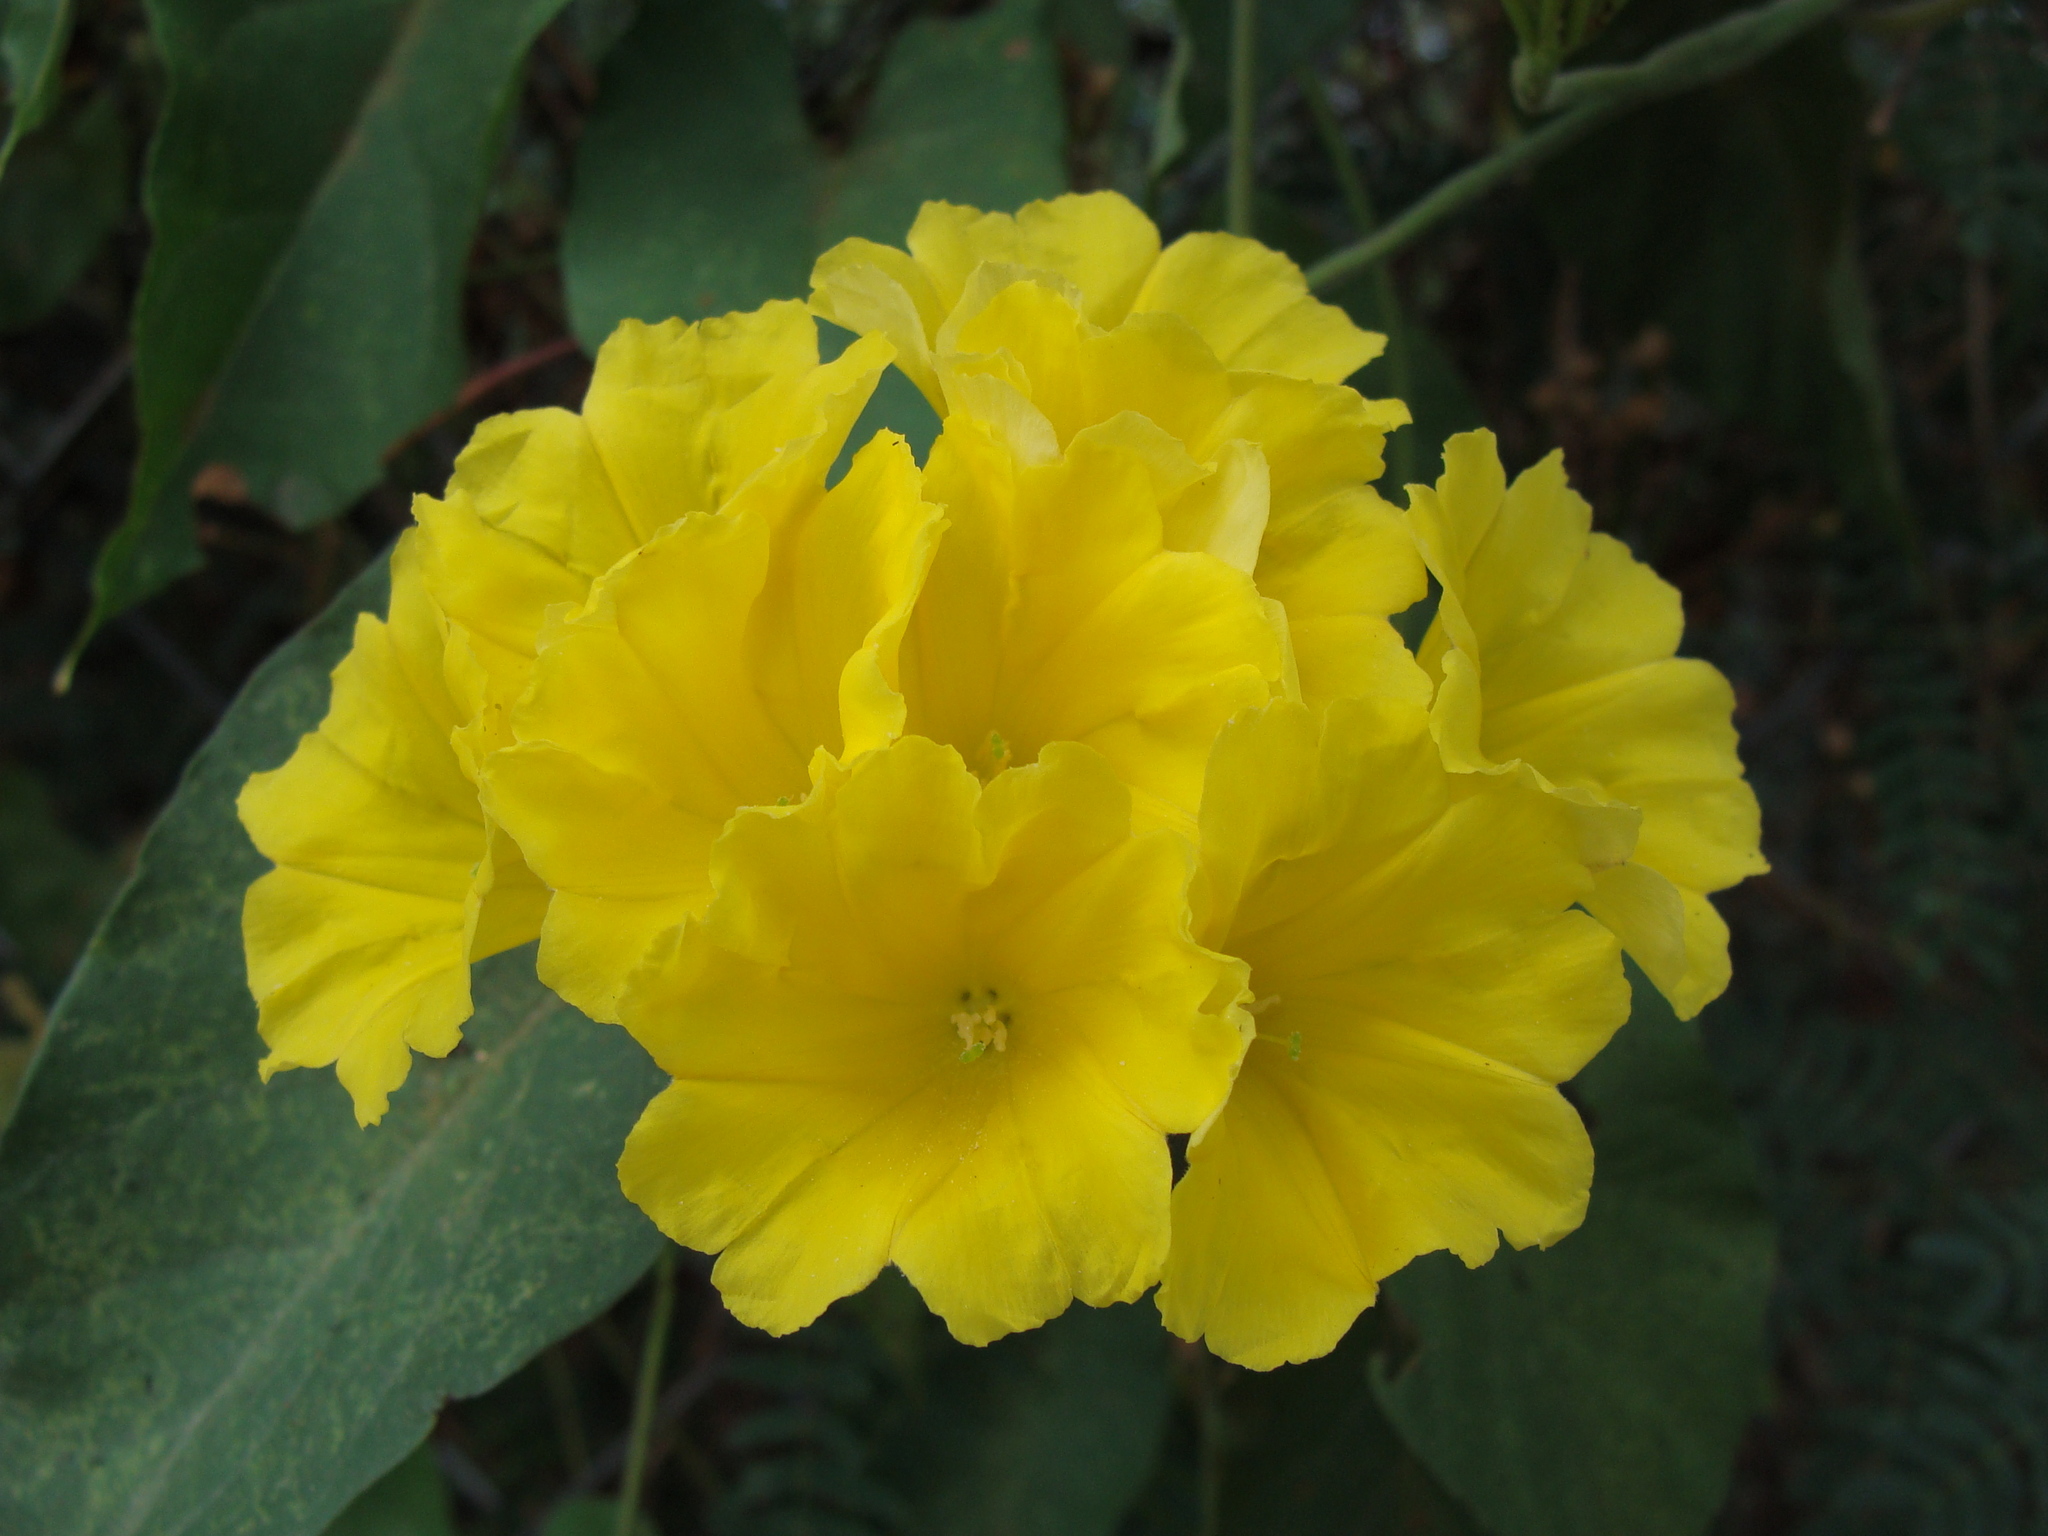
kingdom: Plantae
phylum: Tracheophyta
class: Magnoliopsida
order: Solanales
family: Convolvulaceae
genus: Camonea
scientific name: Camonea umbellata
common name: Hogvine
